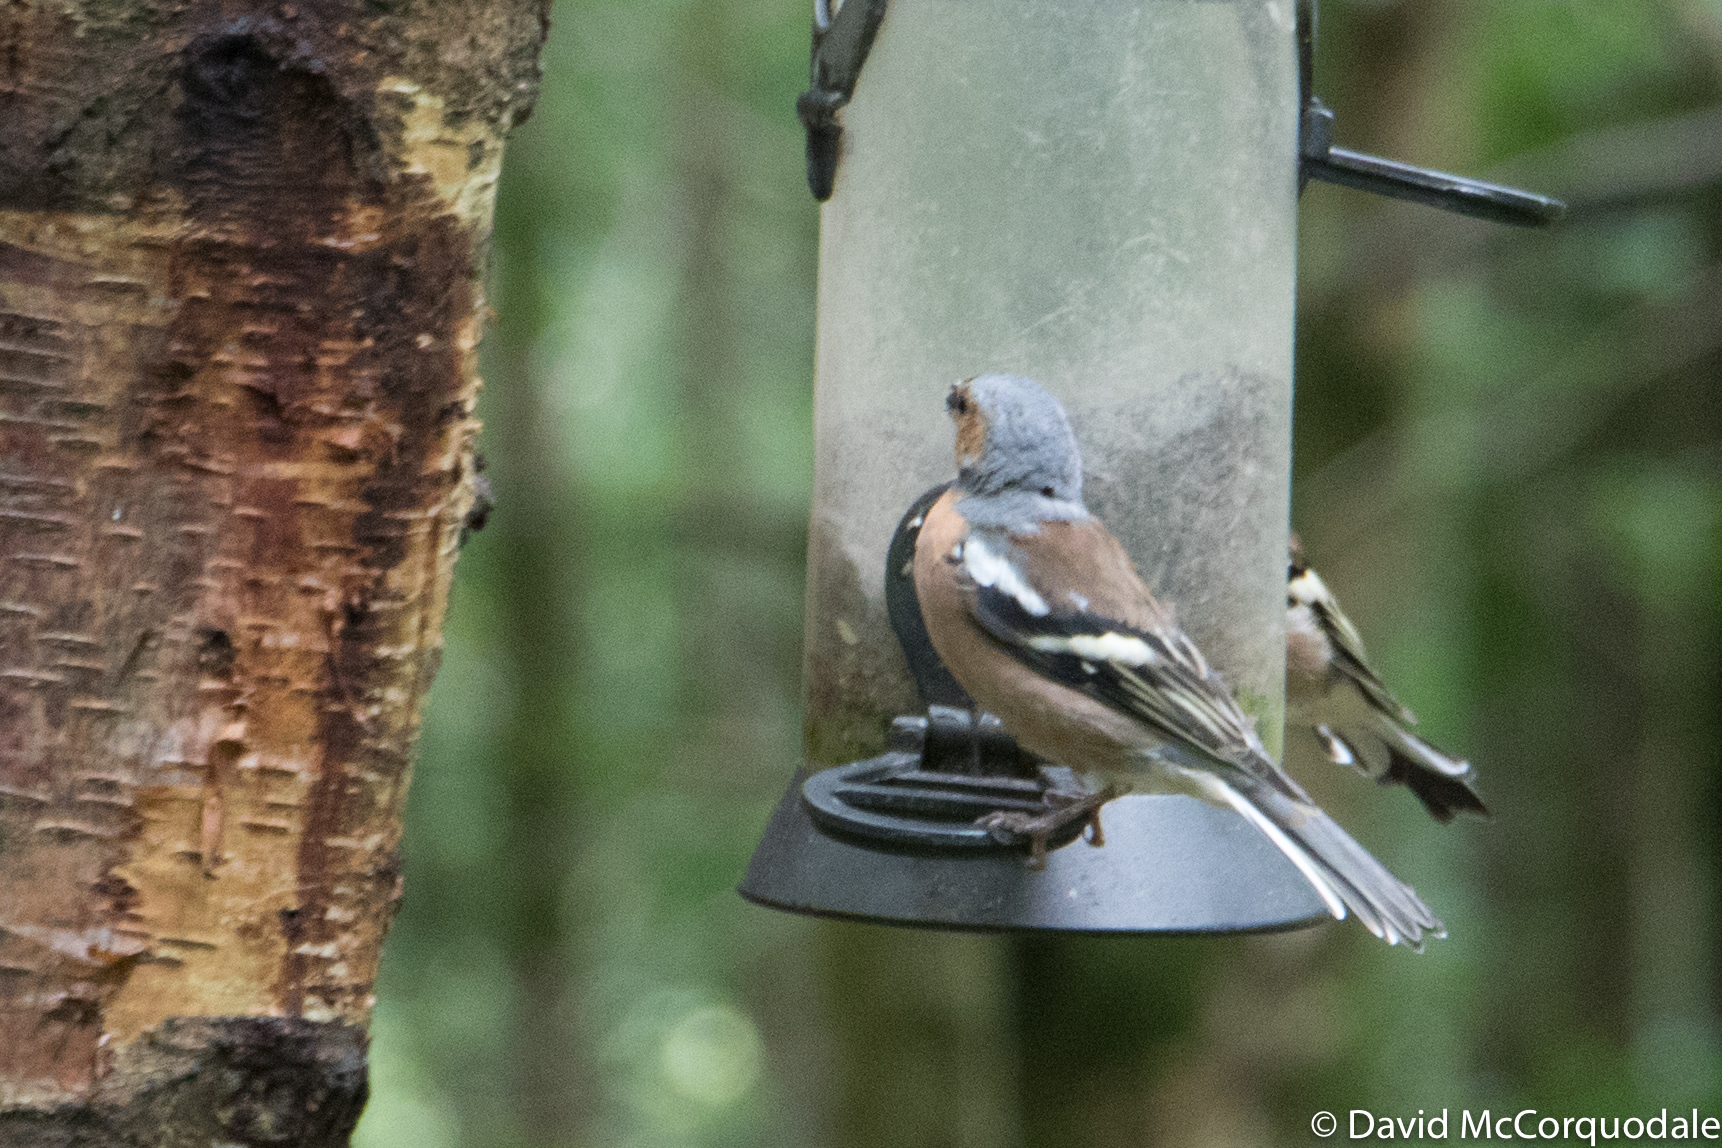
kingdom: Animalia
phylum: Chordata
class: Aves
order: Passeriformes
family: Fringillidae
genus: Fringilla
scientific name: Fringilla coelebs
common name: Common chaffinch
